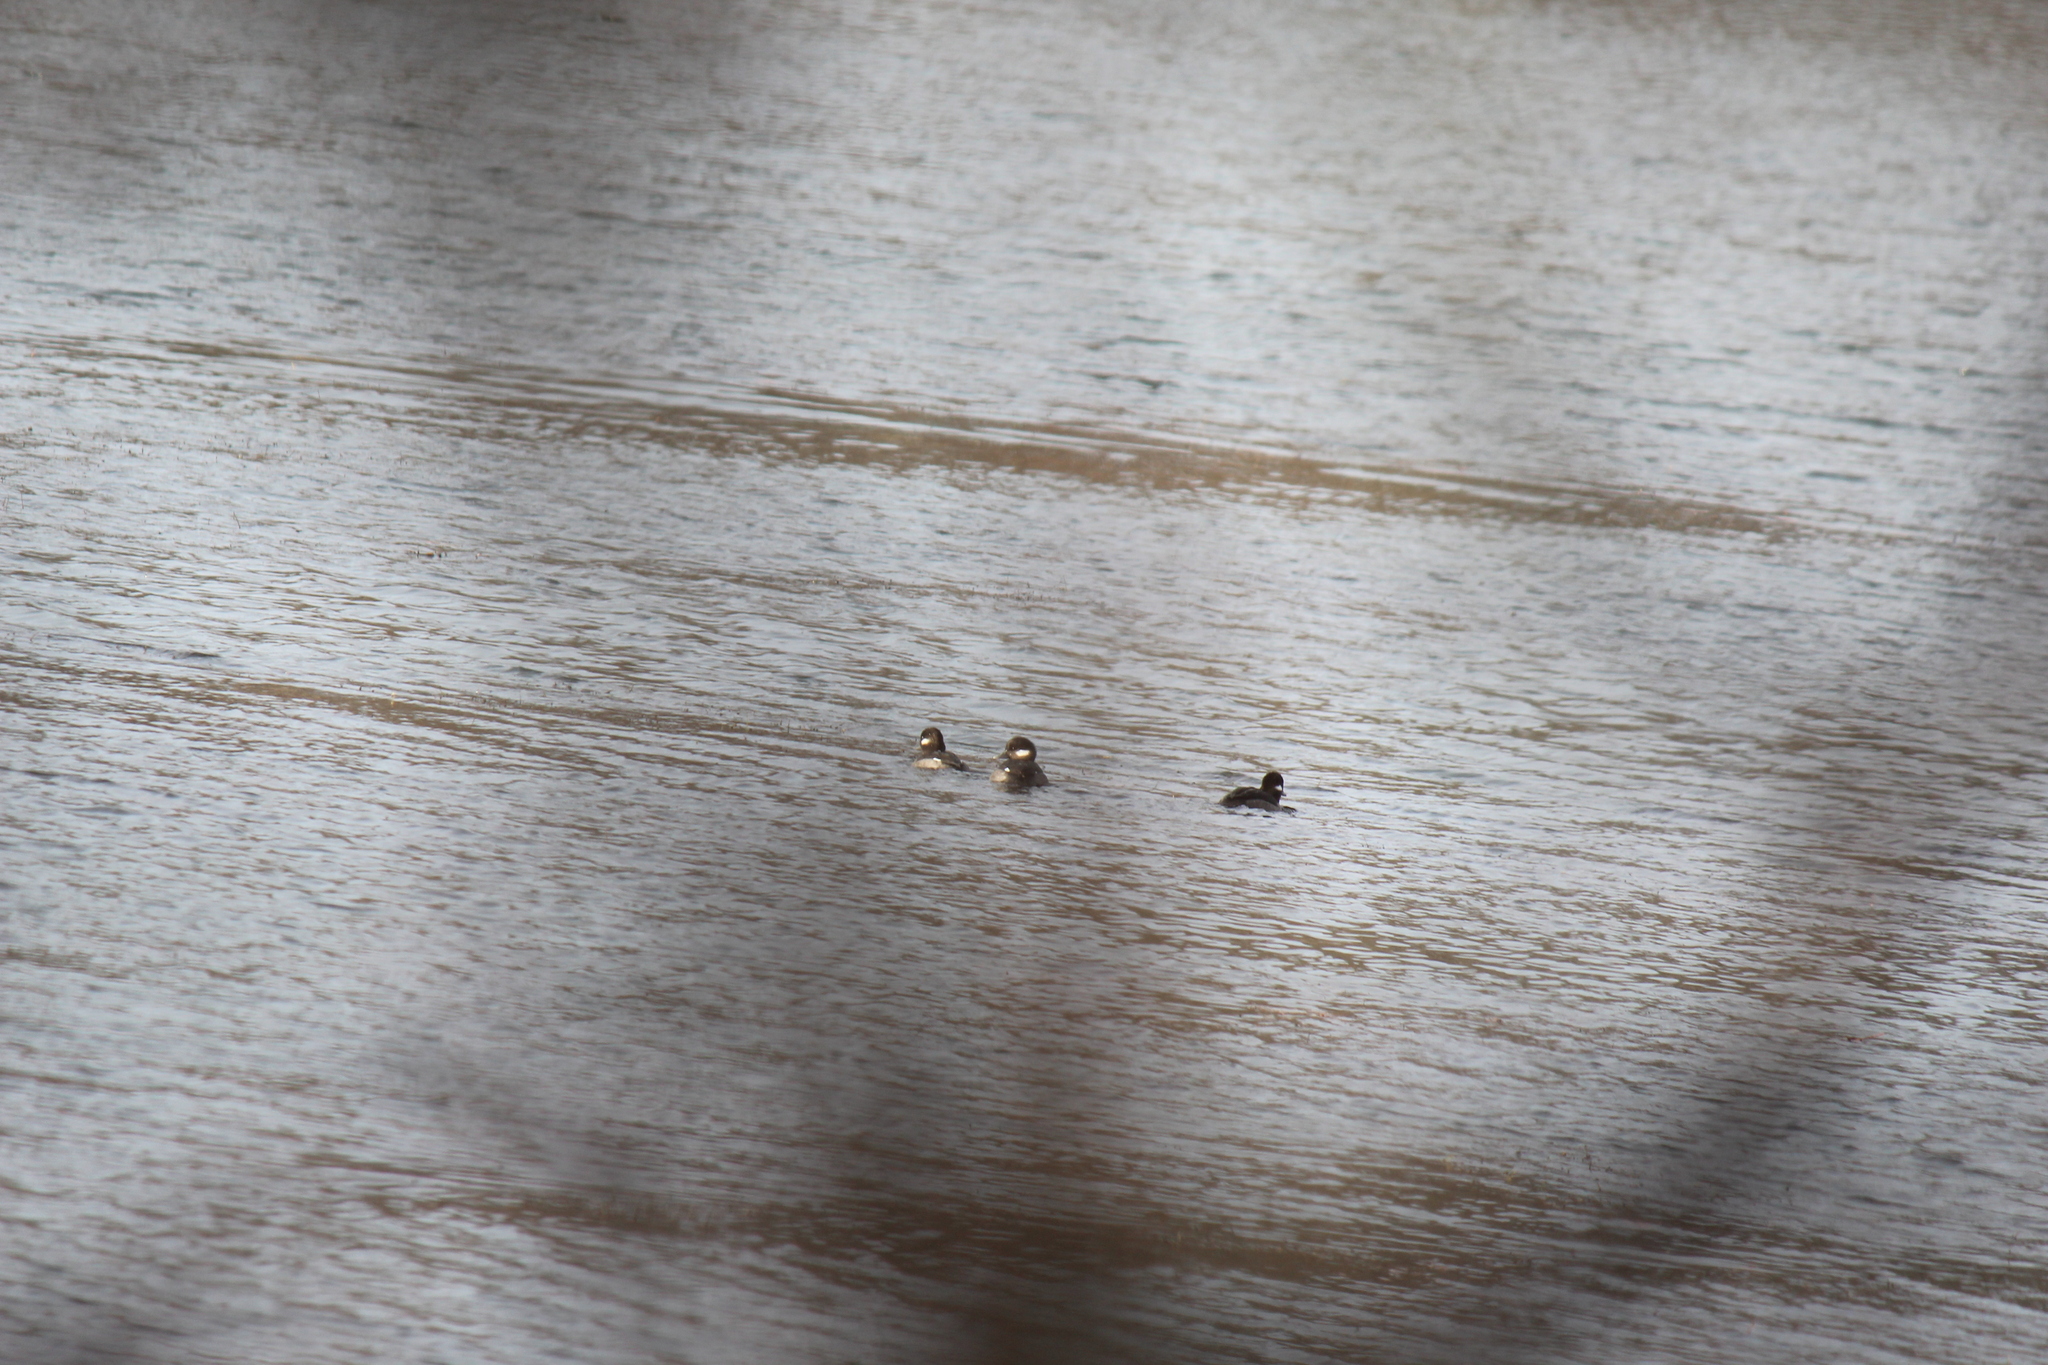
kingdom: Animalia
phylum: Chordata
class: Aves
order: Anseriformes
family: Anatidae
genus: Bucephala
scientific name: Bucephala albeola
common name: Bufflehead
